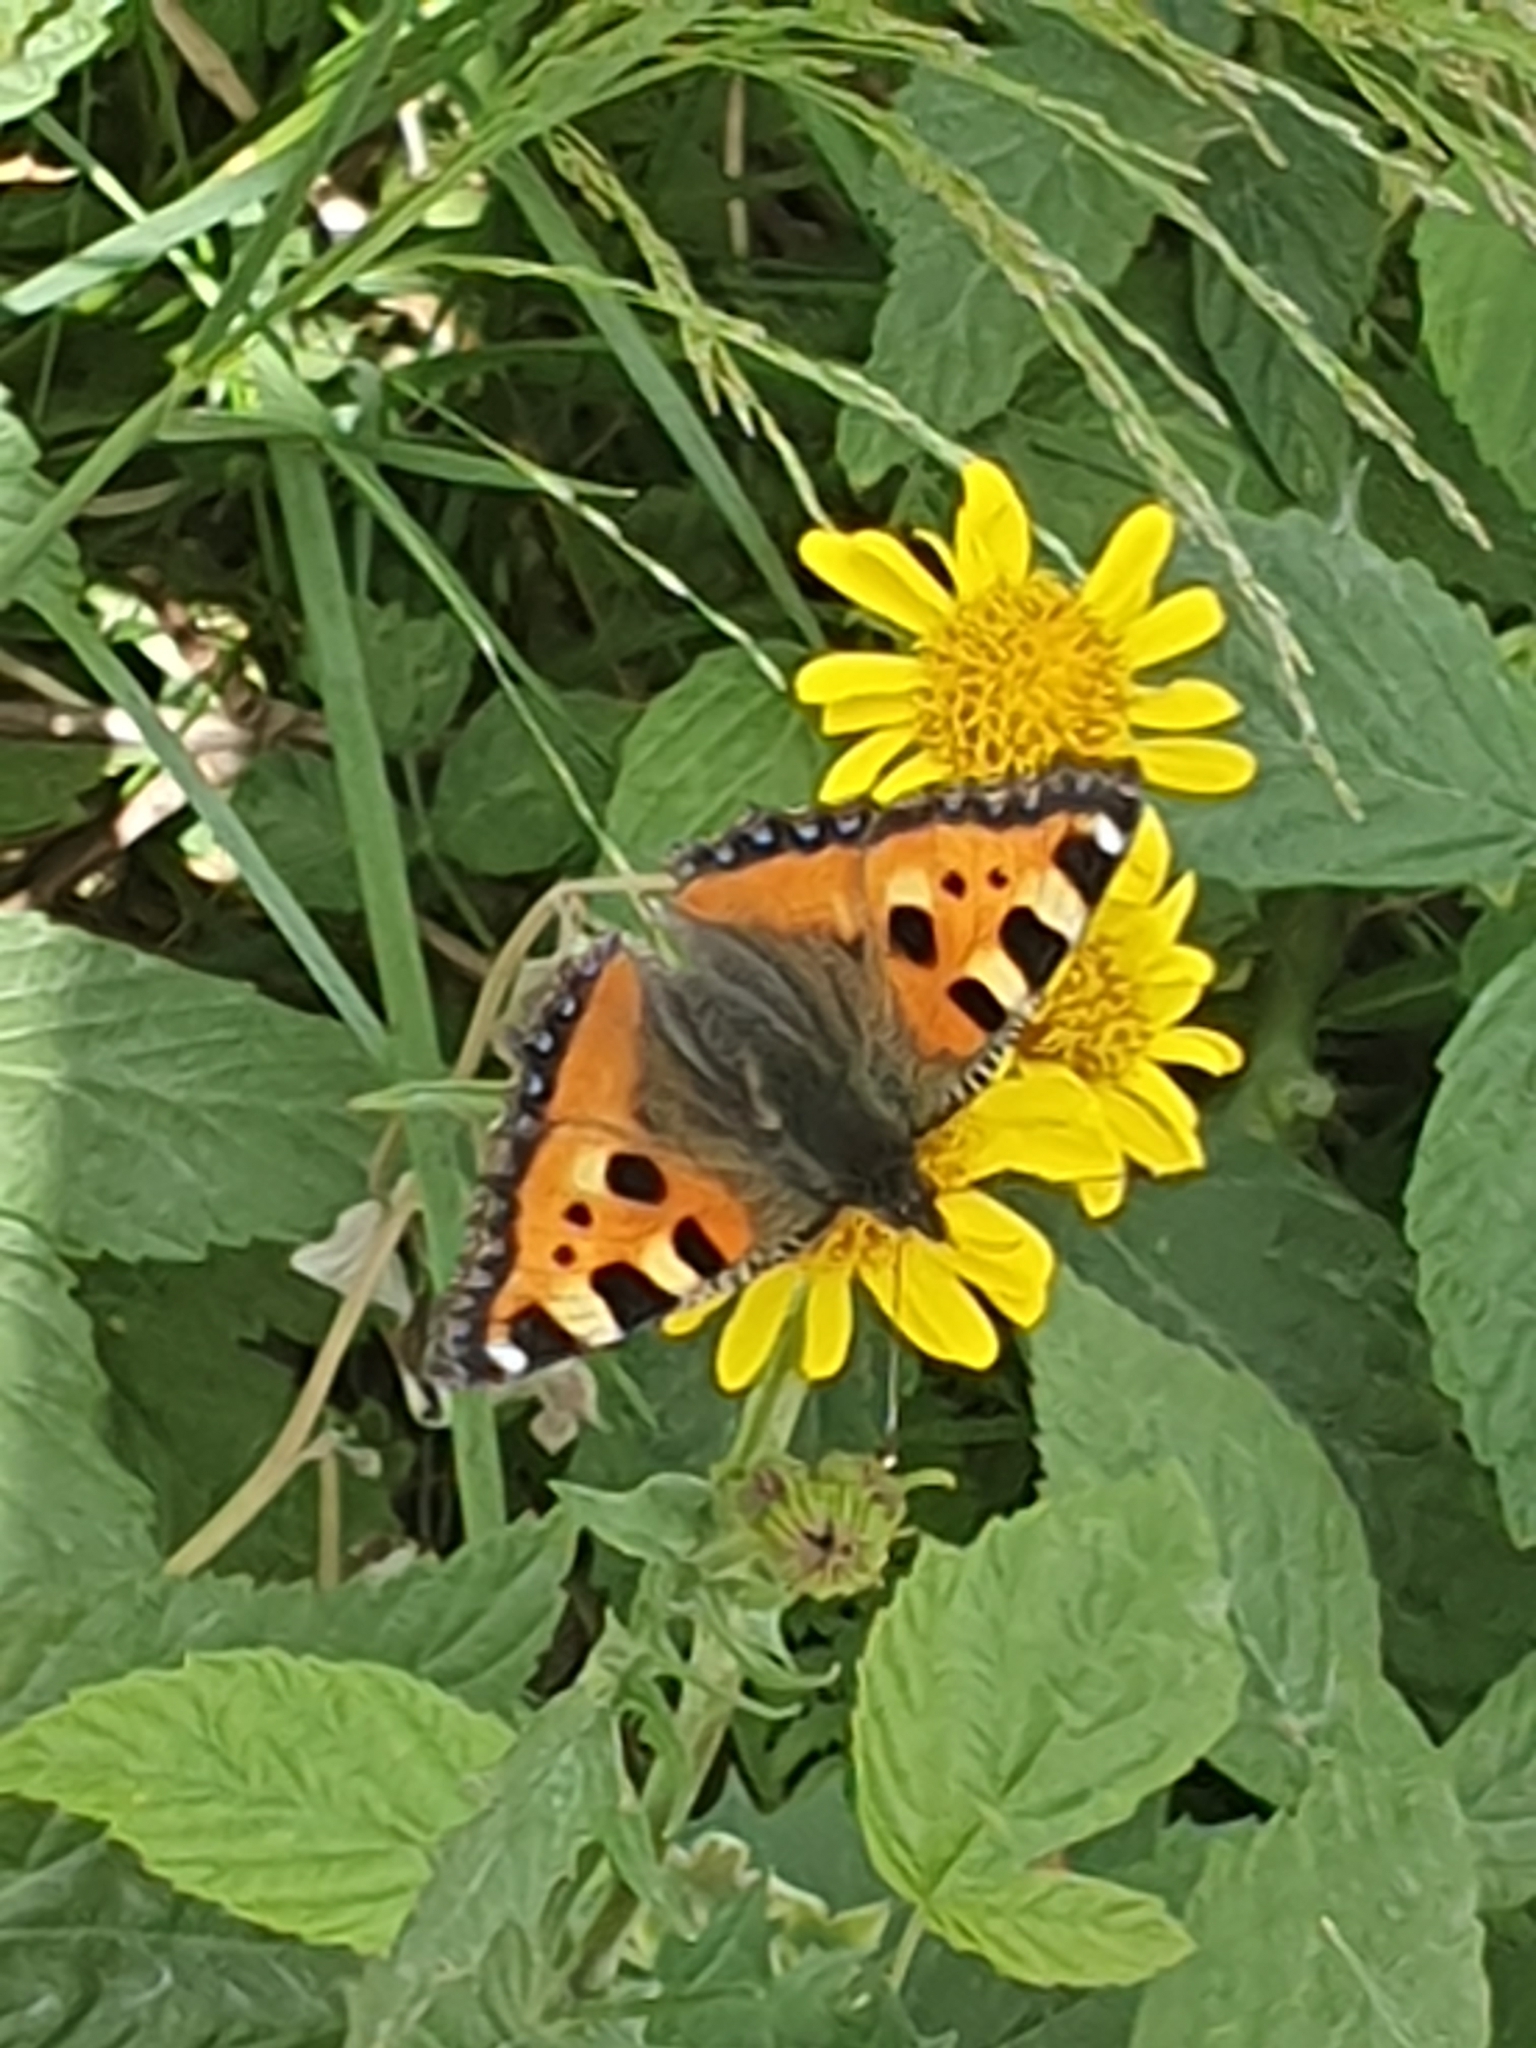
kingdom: Animalia
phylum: Arthropoda
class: Insecta
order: Lepidoptera
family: Nymphalidae
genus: Aglais
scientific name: Aglais urticae
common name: Small tortoiseshell
